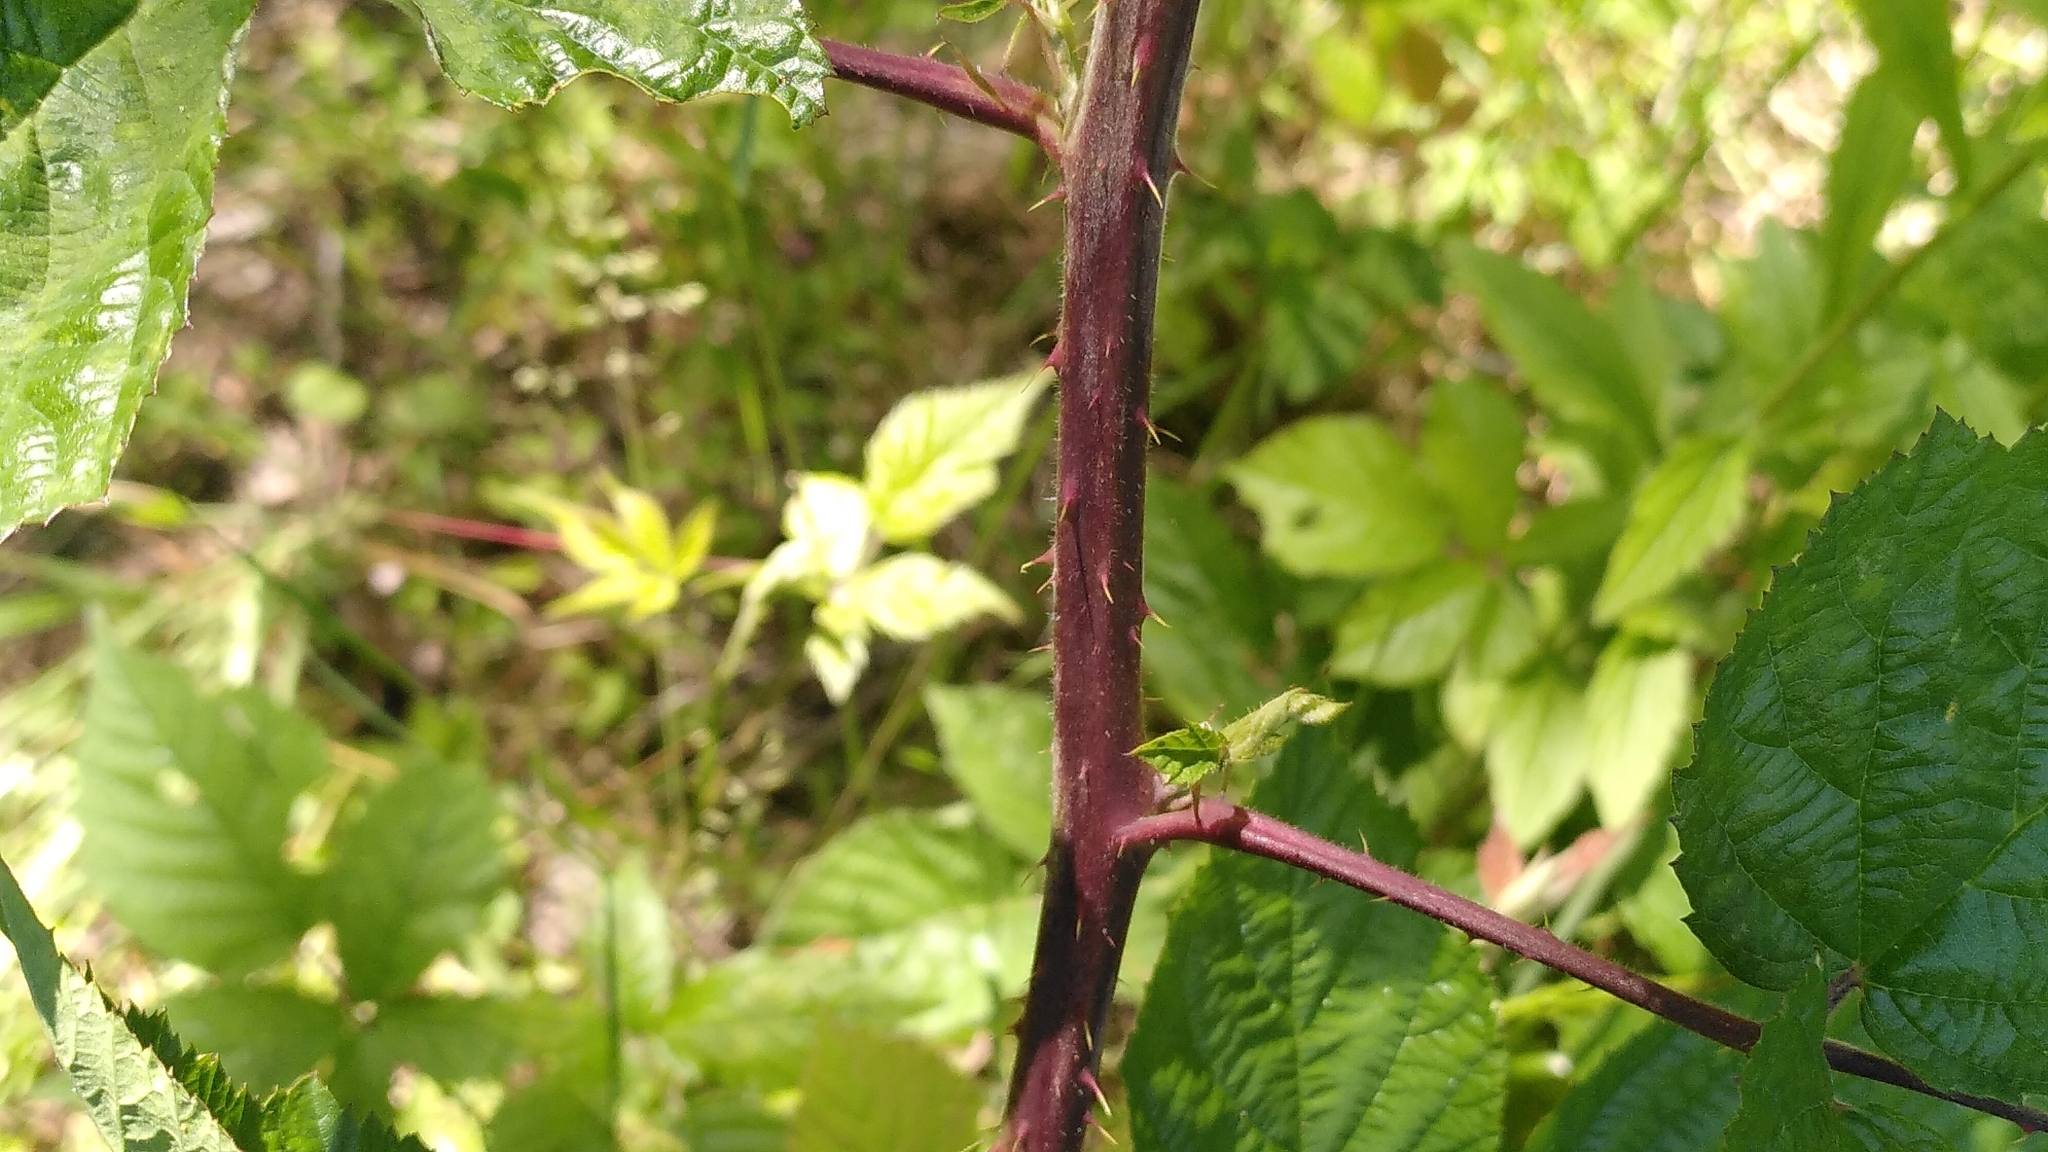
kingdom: Plantae
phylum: Tracheophyta
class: Magnoliopsida
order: Rosales
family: Rosaceae
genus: Rubus
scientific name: Rubus condensatus
